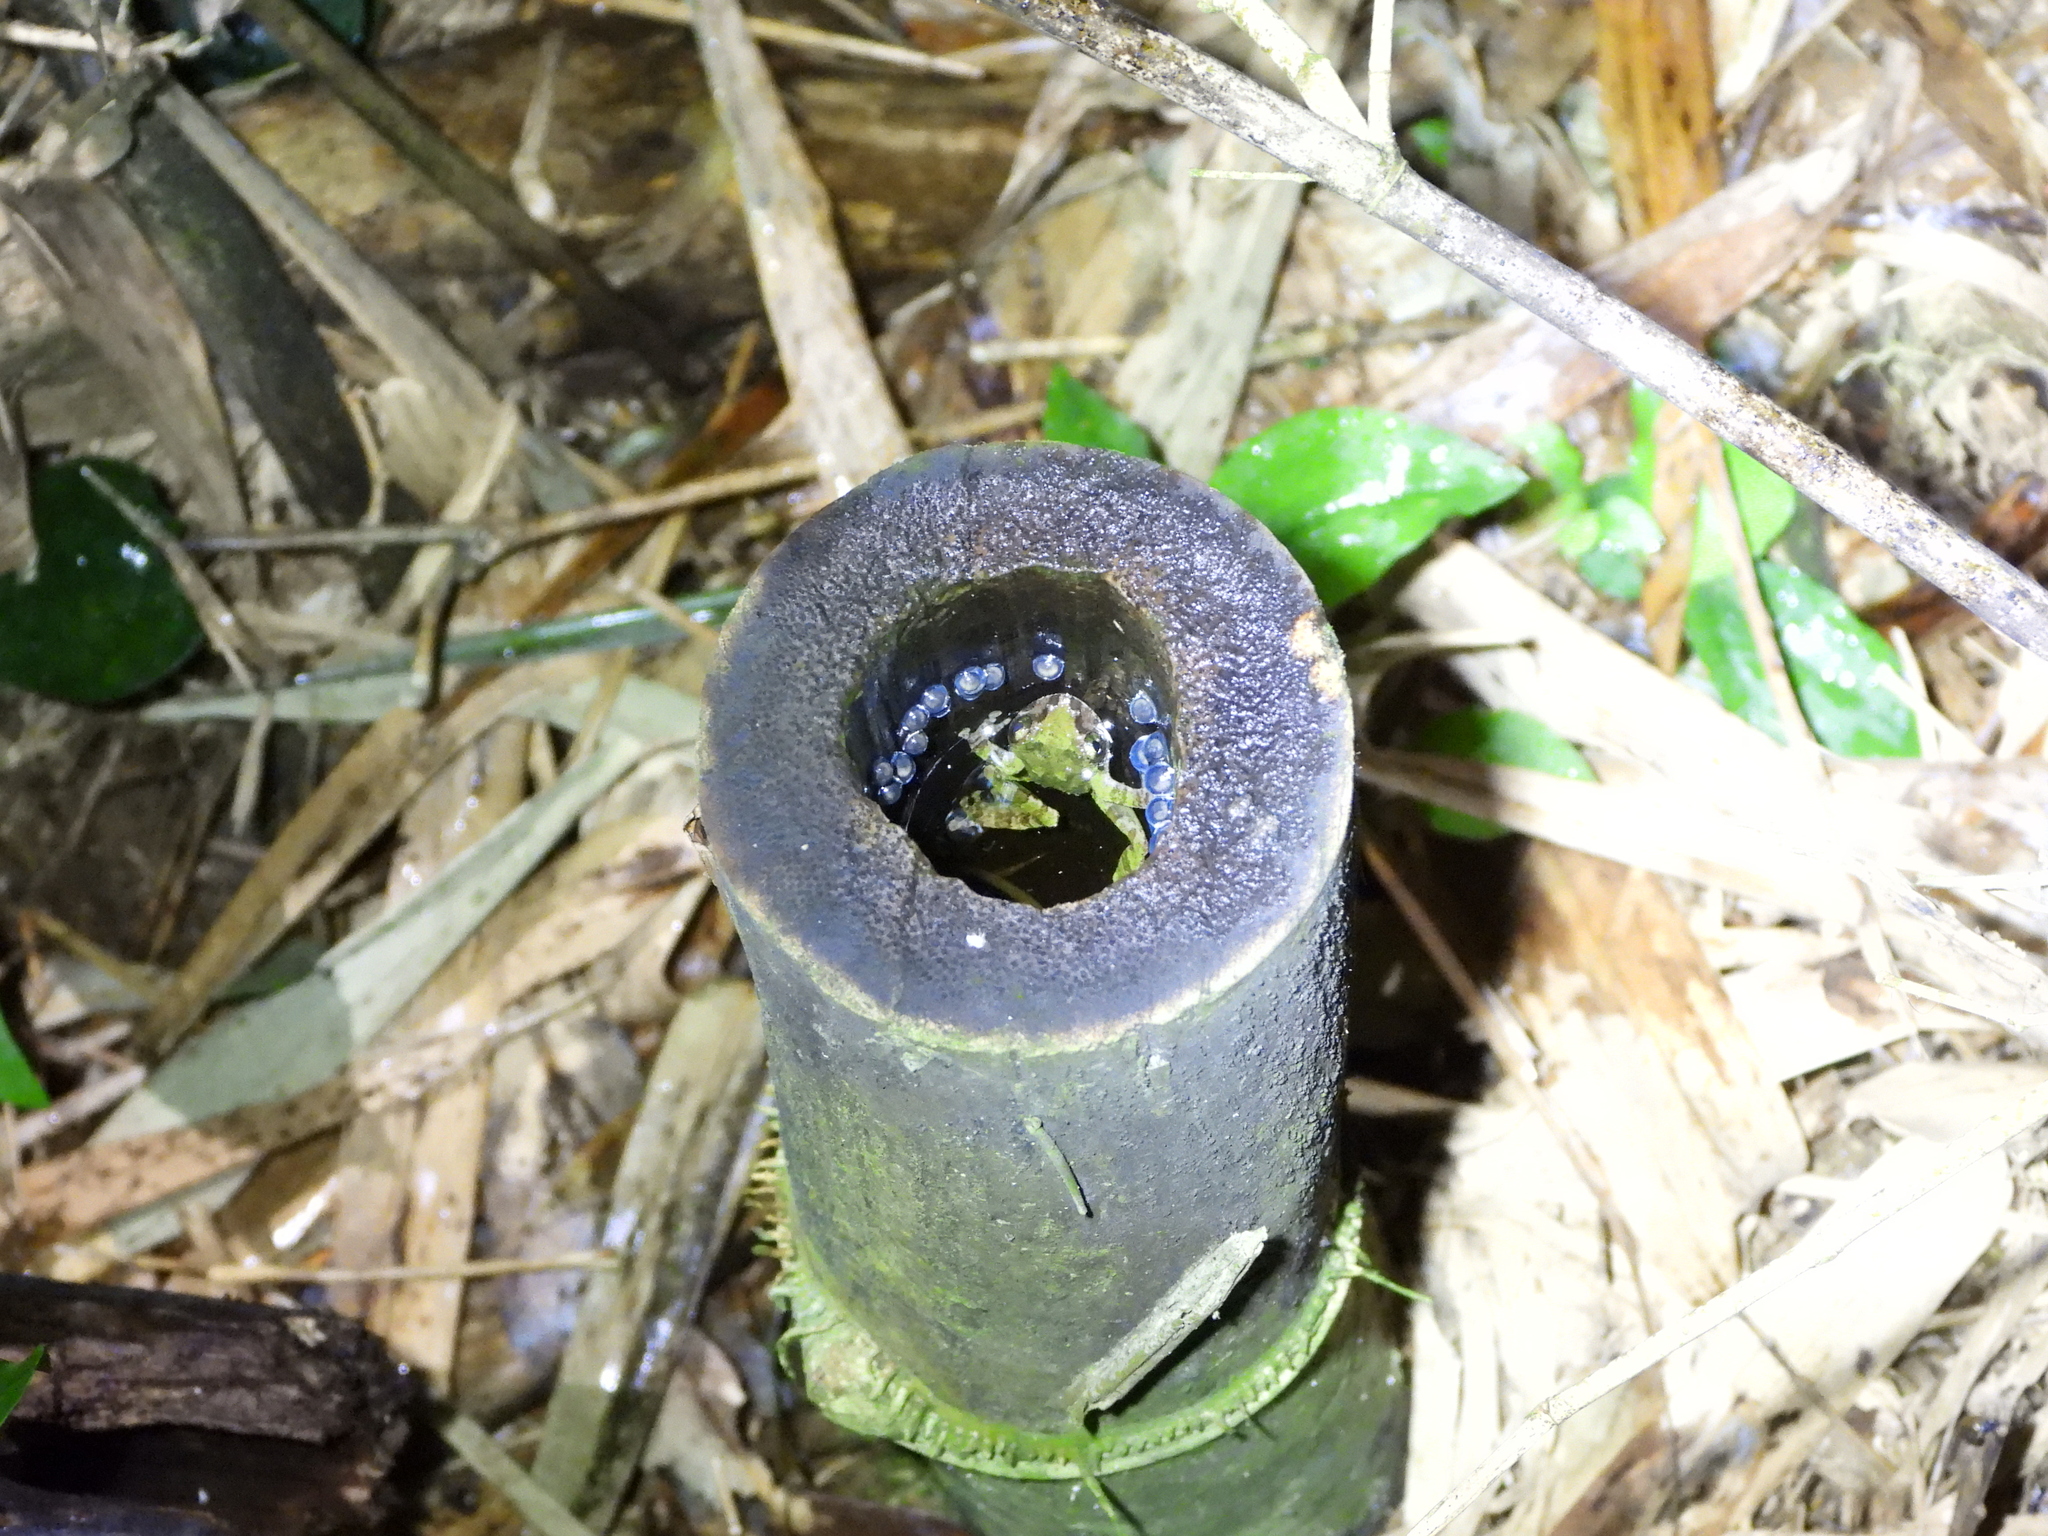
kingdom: Animalia
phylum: Chordata
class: Amphibia
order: Anura
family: Rhacophoridae
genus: Kurixalus
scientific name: Kurixalus berylliniris
